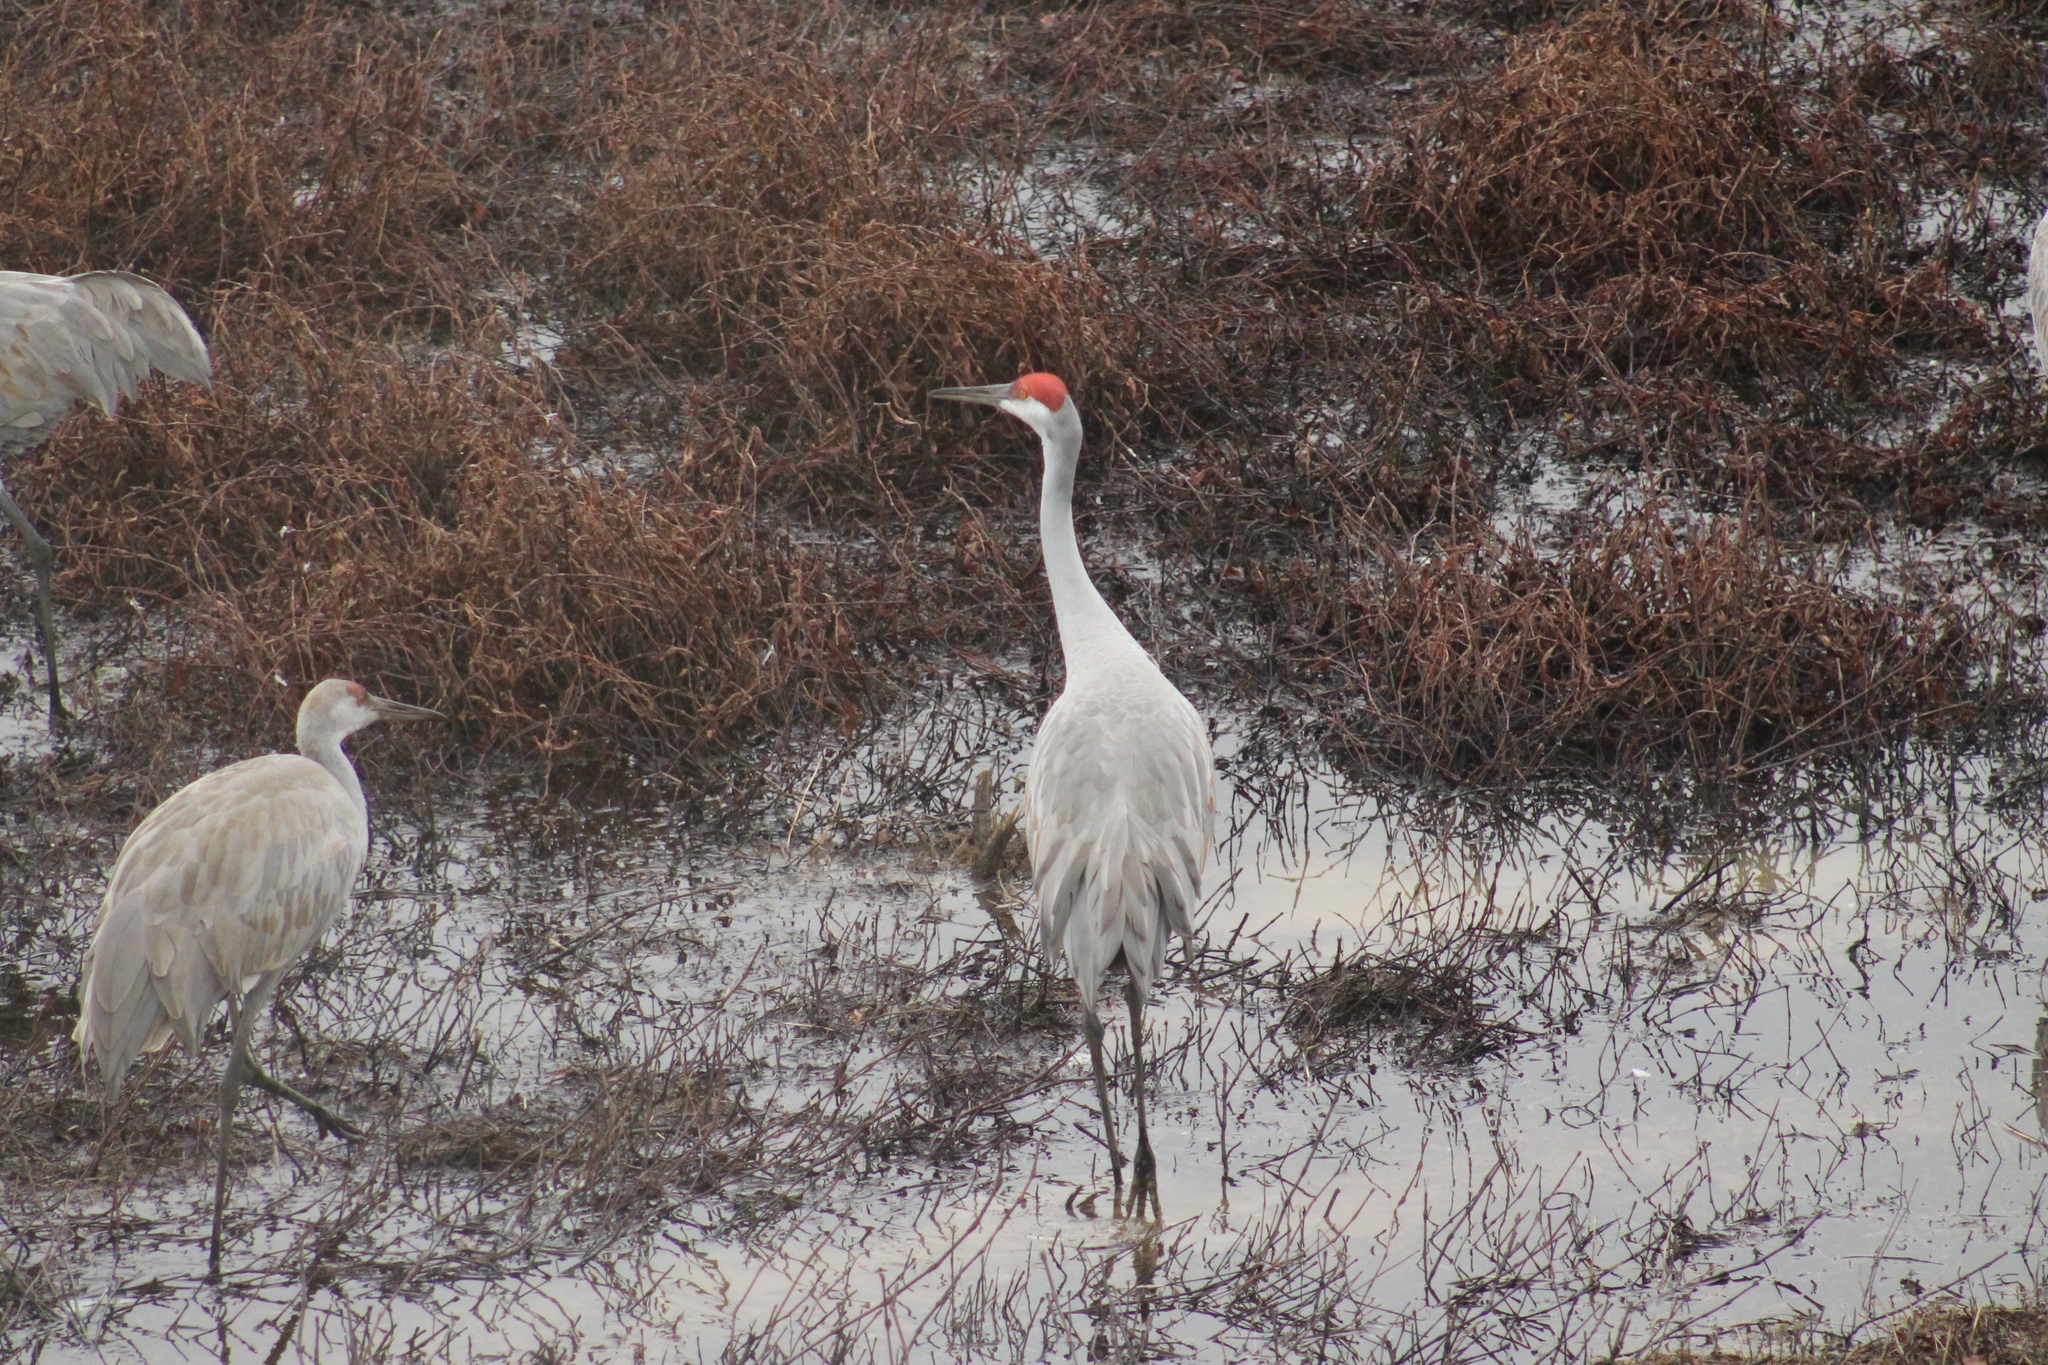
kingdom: Animalia
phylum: Chordata
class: Aves
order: Gruiformes
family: Gruidae
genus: Grus
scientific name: Grus canadensis
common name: Sandhill crane
